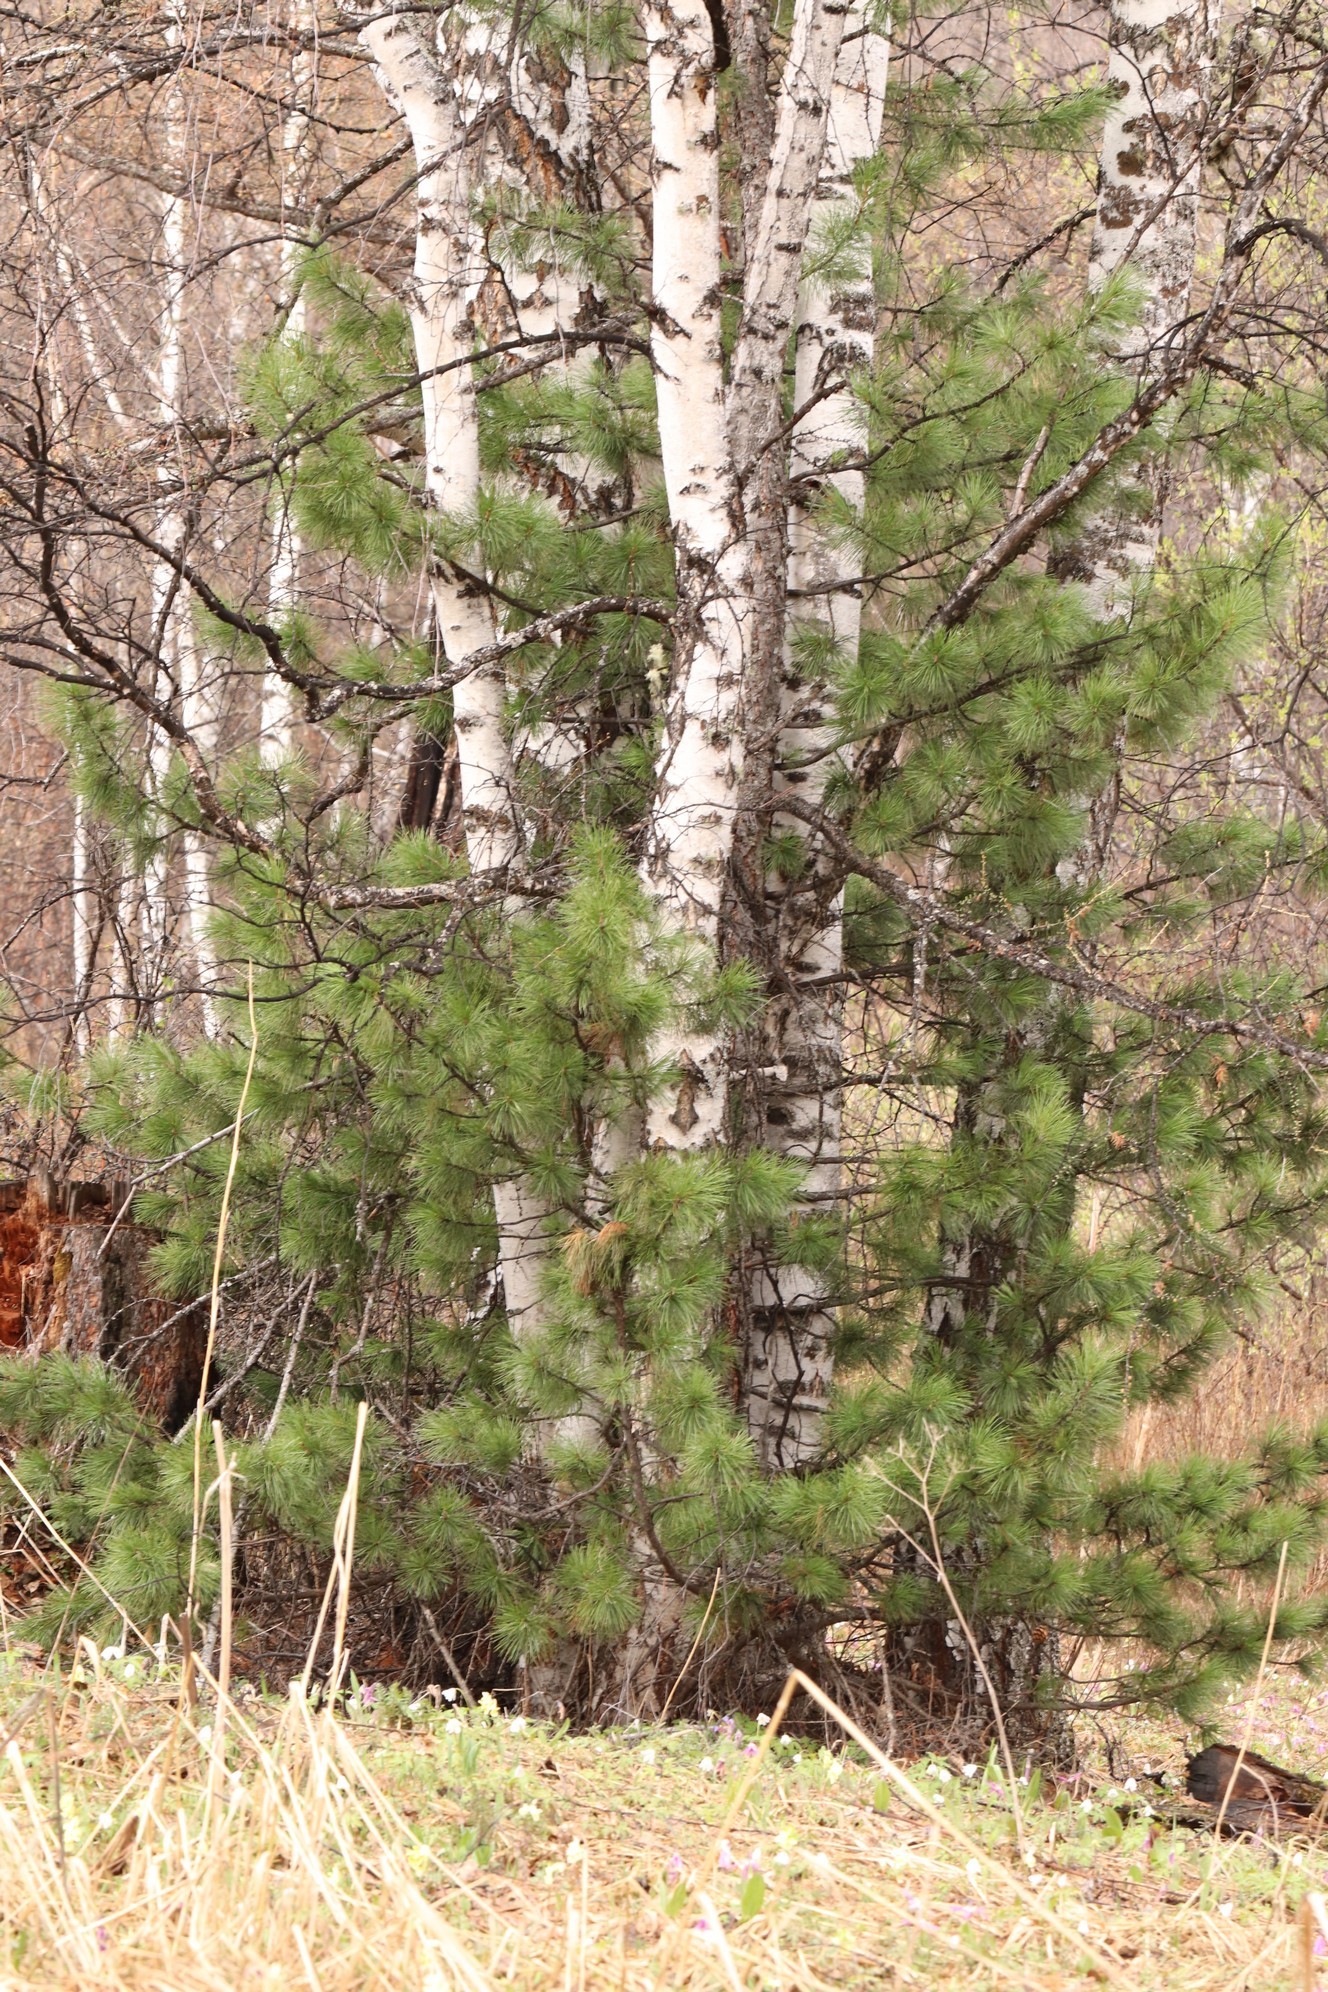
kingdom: Plantae
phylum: Tracheophyta
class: Pinopsida
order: Pinales
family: Pinaceae
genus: Pinus
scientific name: Pinus sibirica
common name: Siberian pine
